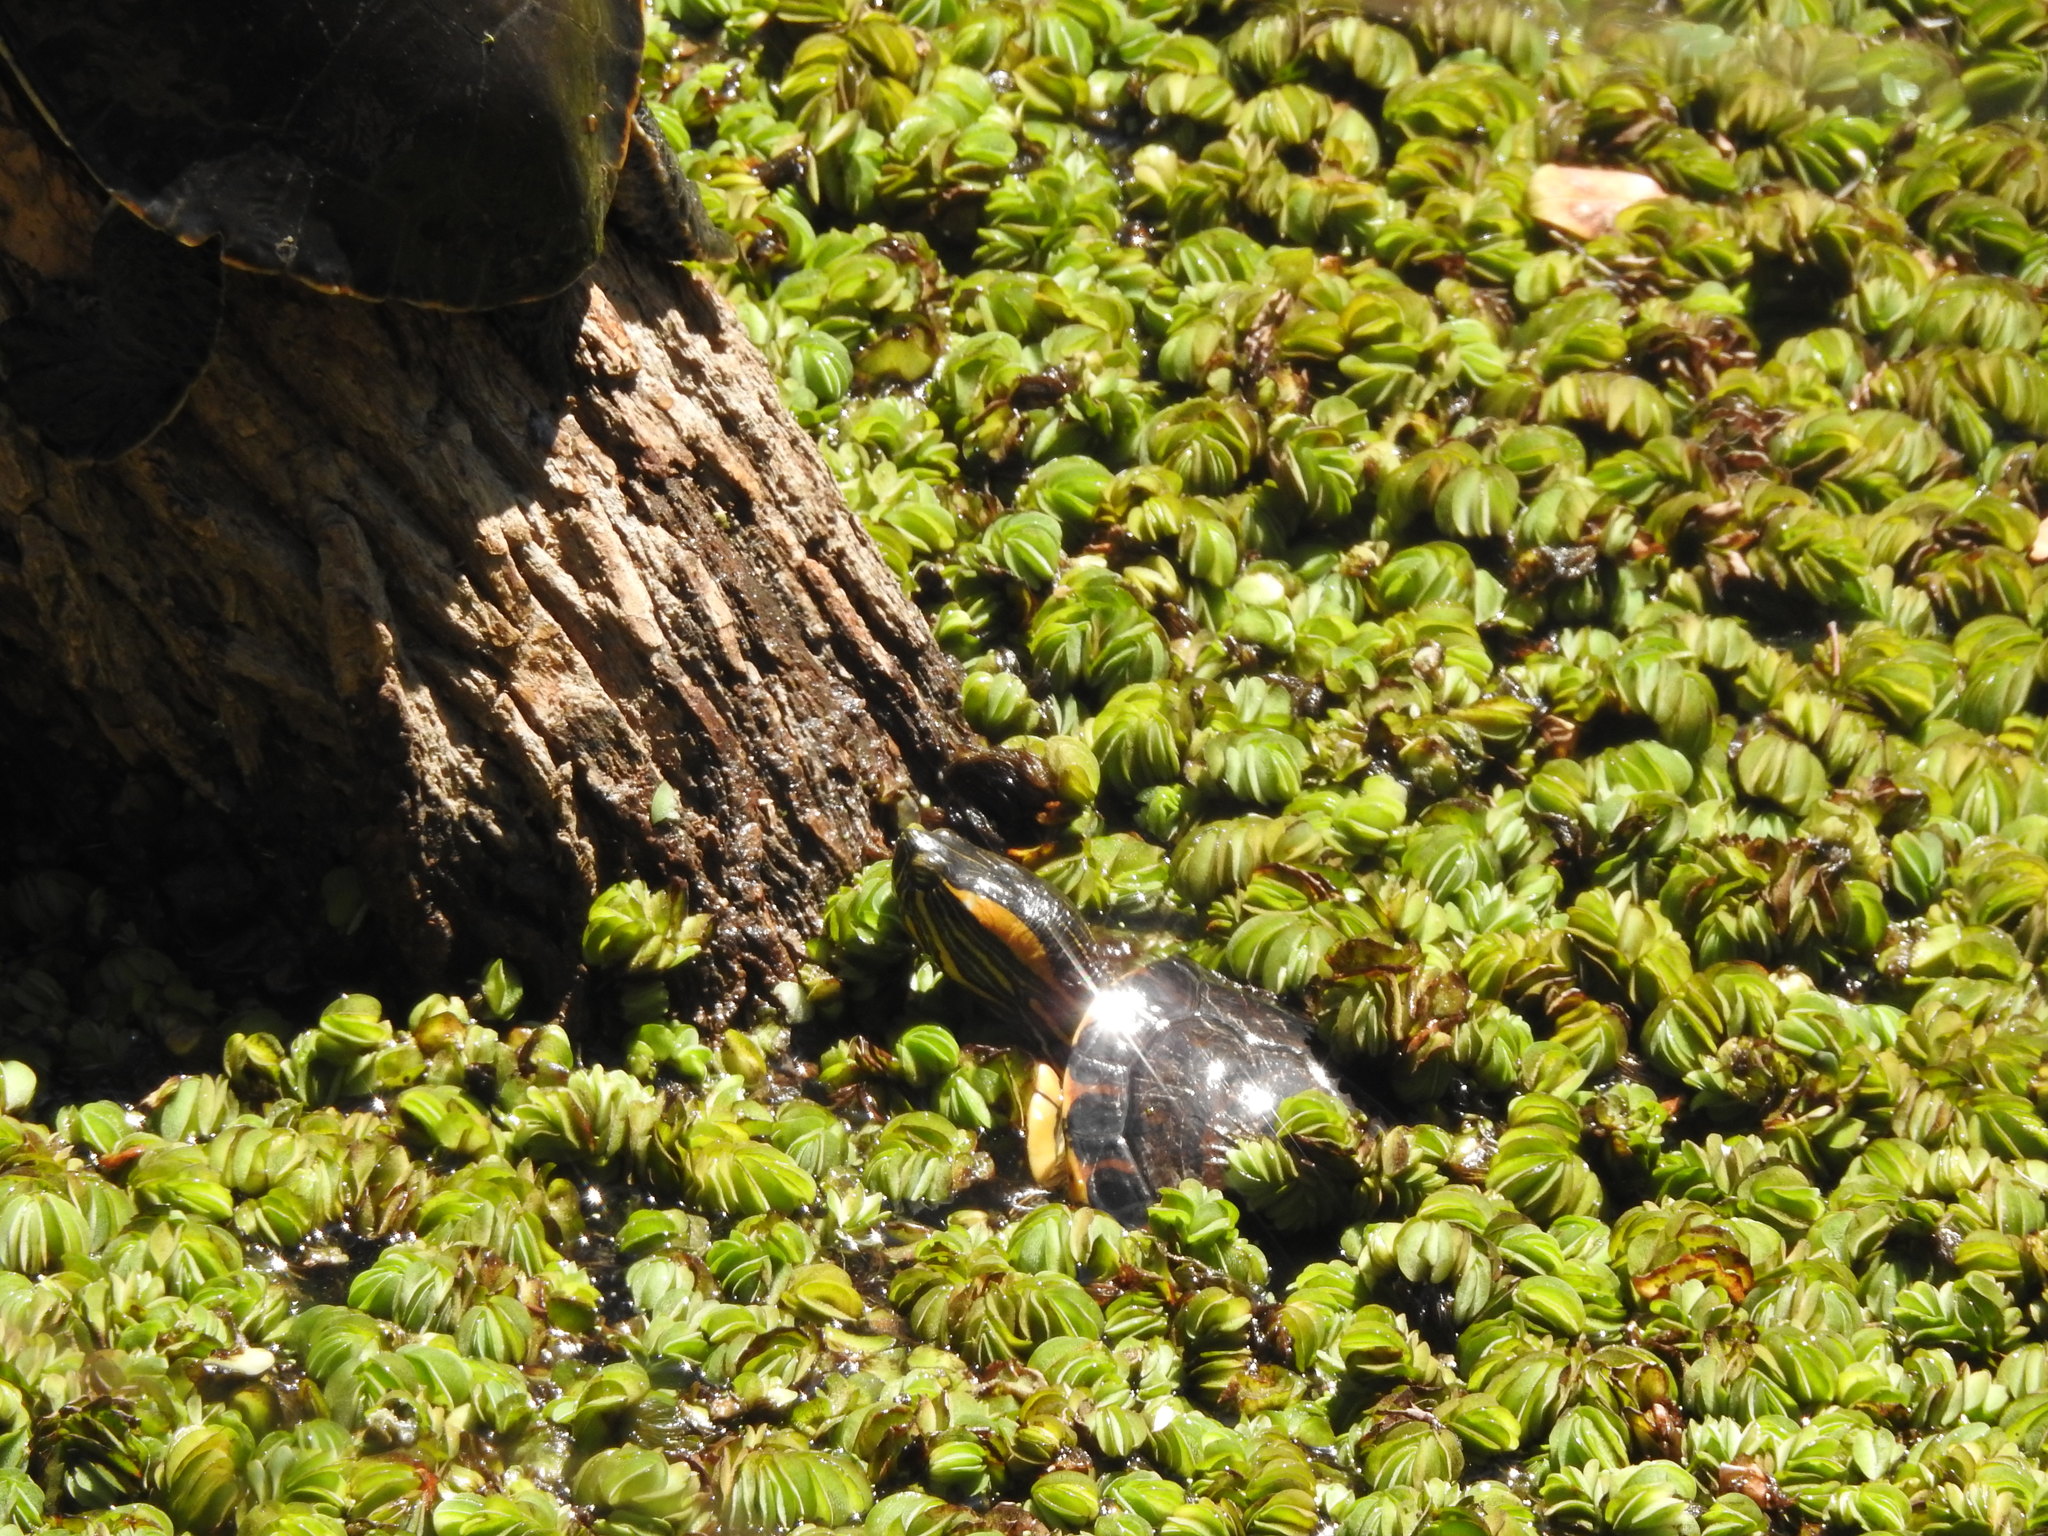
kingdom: Animalia
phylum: Chordata
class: Testudines
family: Emydidae
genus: Trachemys
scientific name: Trachemys dorbigni
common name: Black-bellied slider
